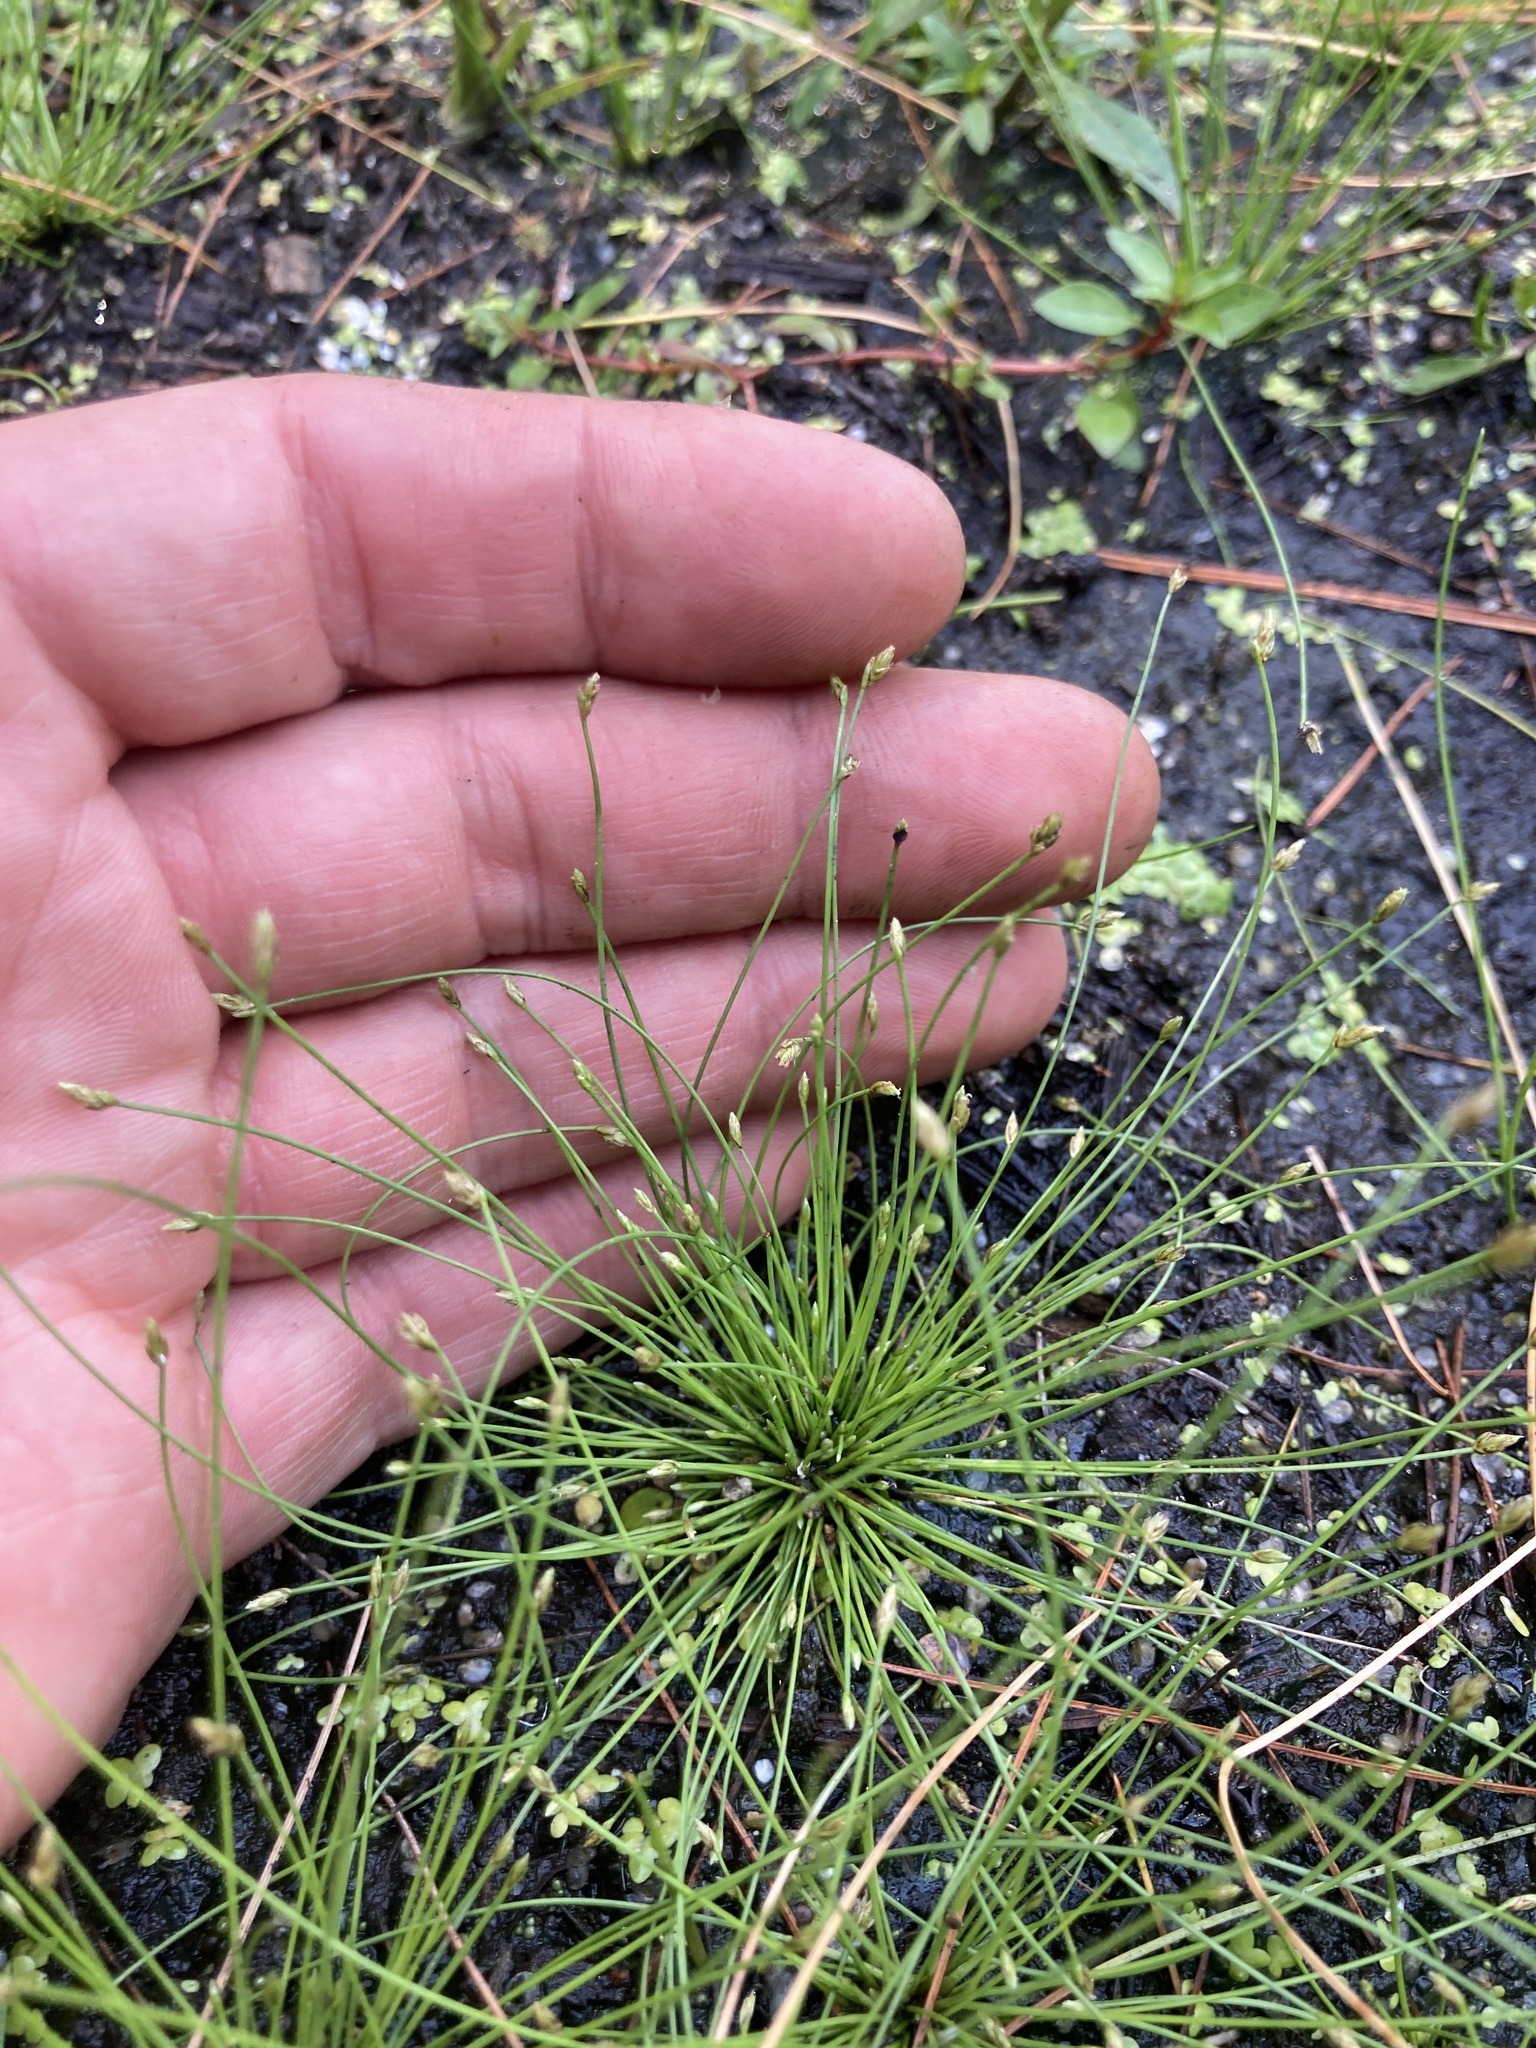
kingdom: Plantae
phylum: Tracheophyta
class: Liliopsida
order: Poales
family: Cyperaceae
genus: Eleocharis
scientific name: Eleocharis intermedia
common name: Intermediate spikerush
